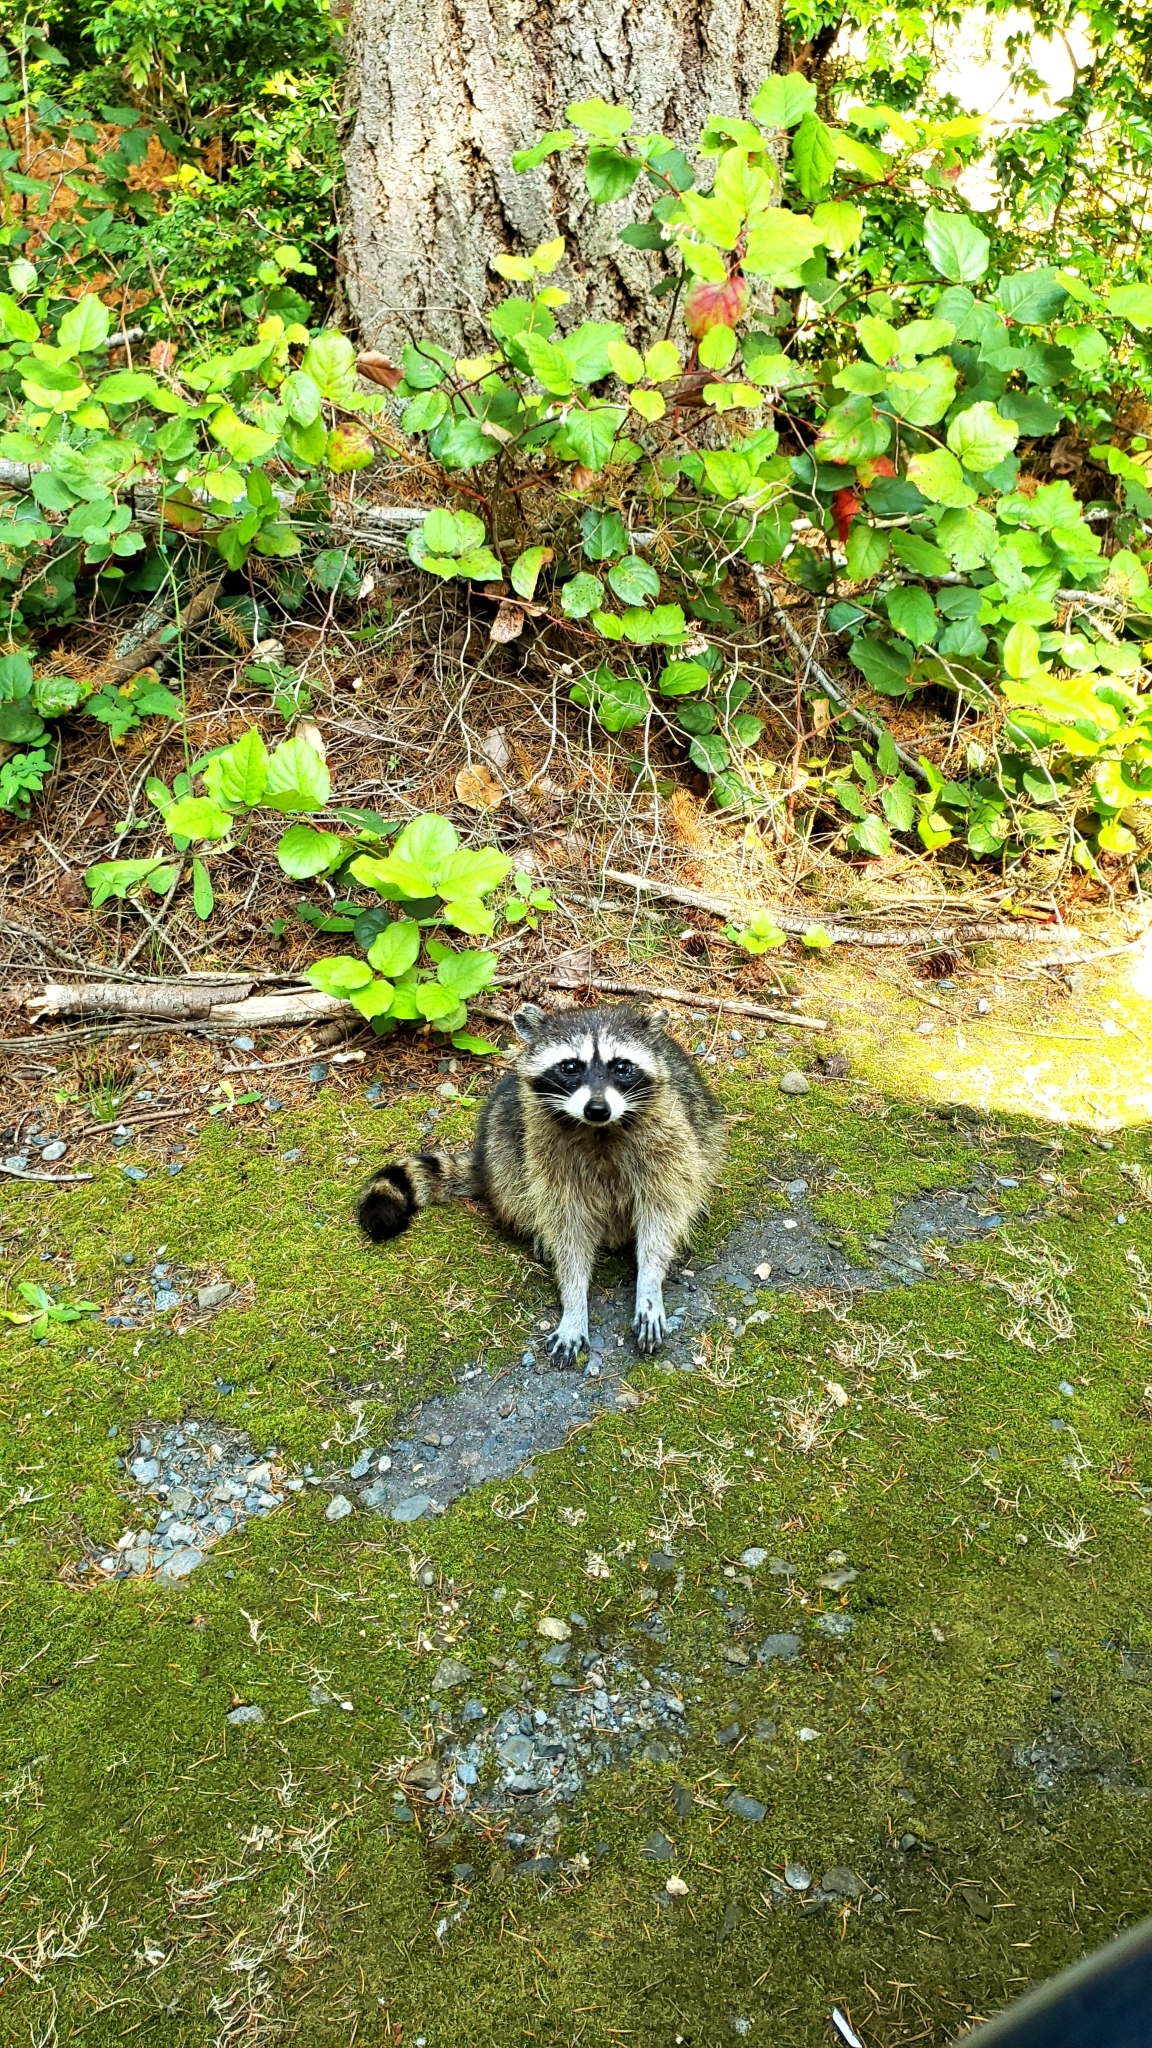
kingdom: Animalia
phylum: Chordata
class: Mammalia
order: Carnivora
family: Procyonidae
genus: Procyon
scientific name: Procyon lotor
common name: Raccoon
